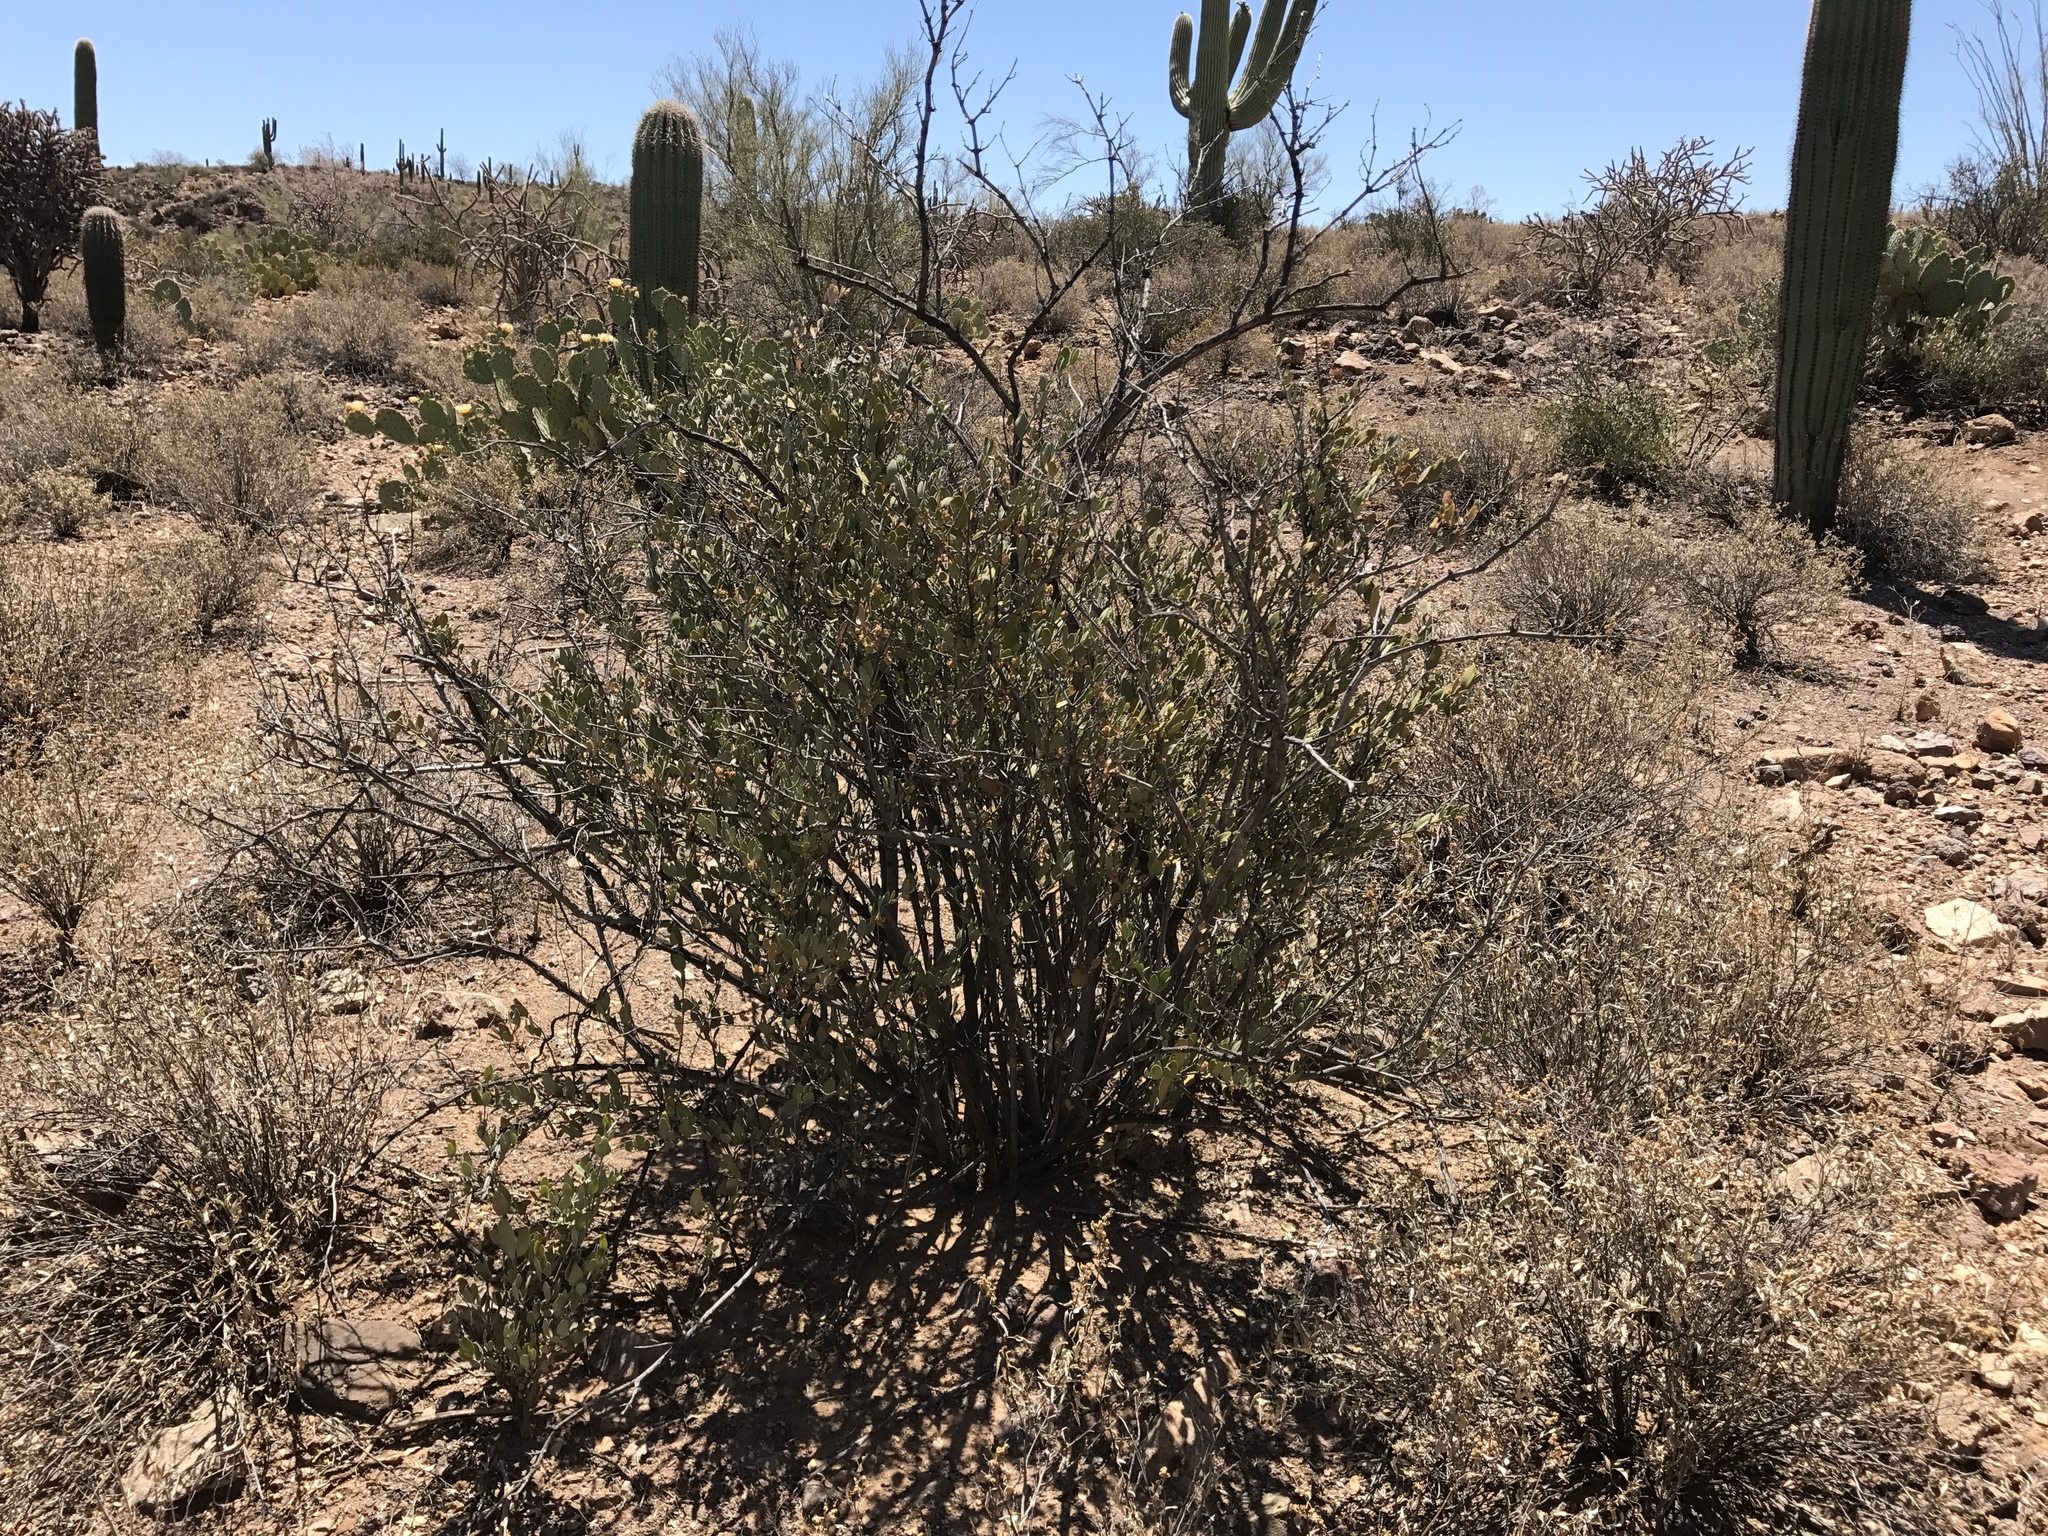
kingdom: Plantae
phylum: Tracheophyta
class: Magnoliopsida
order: Caryophyllales
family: Simmondsiaceae
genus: Simmondsia
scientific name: Simmondsia chinensis
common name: Jojoba
